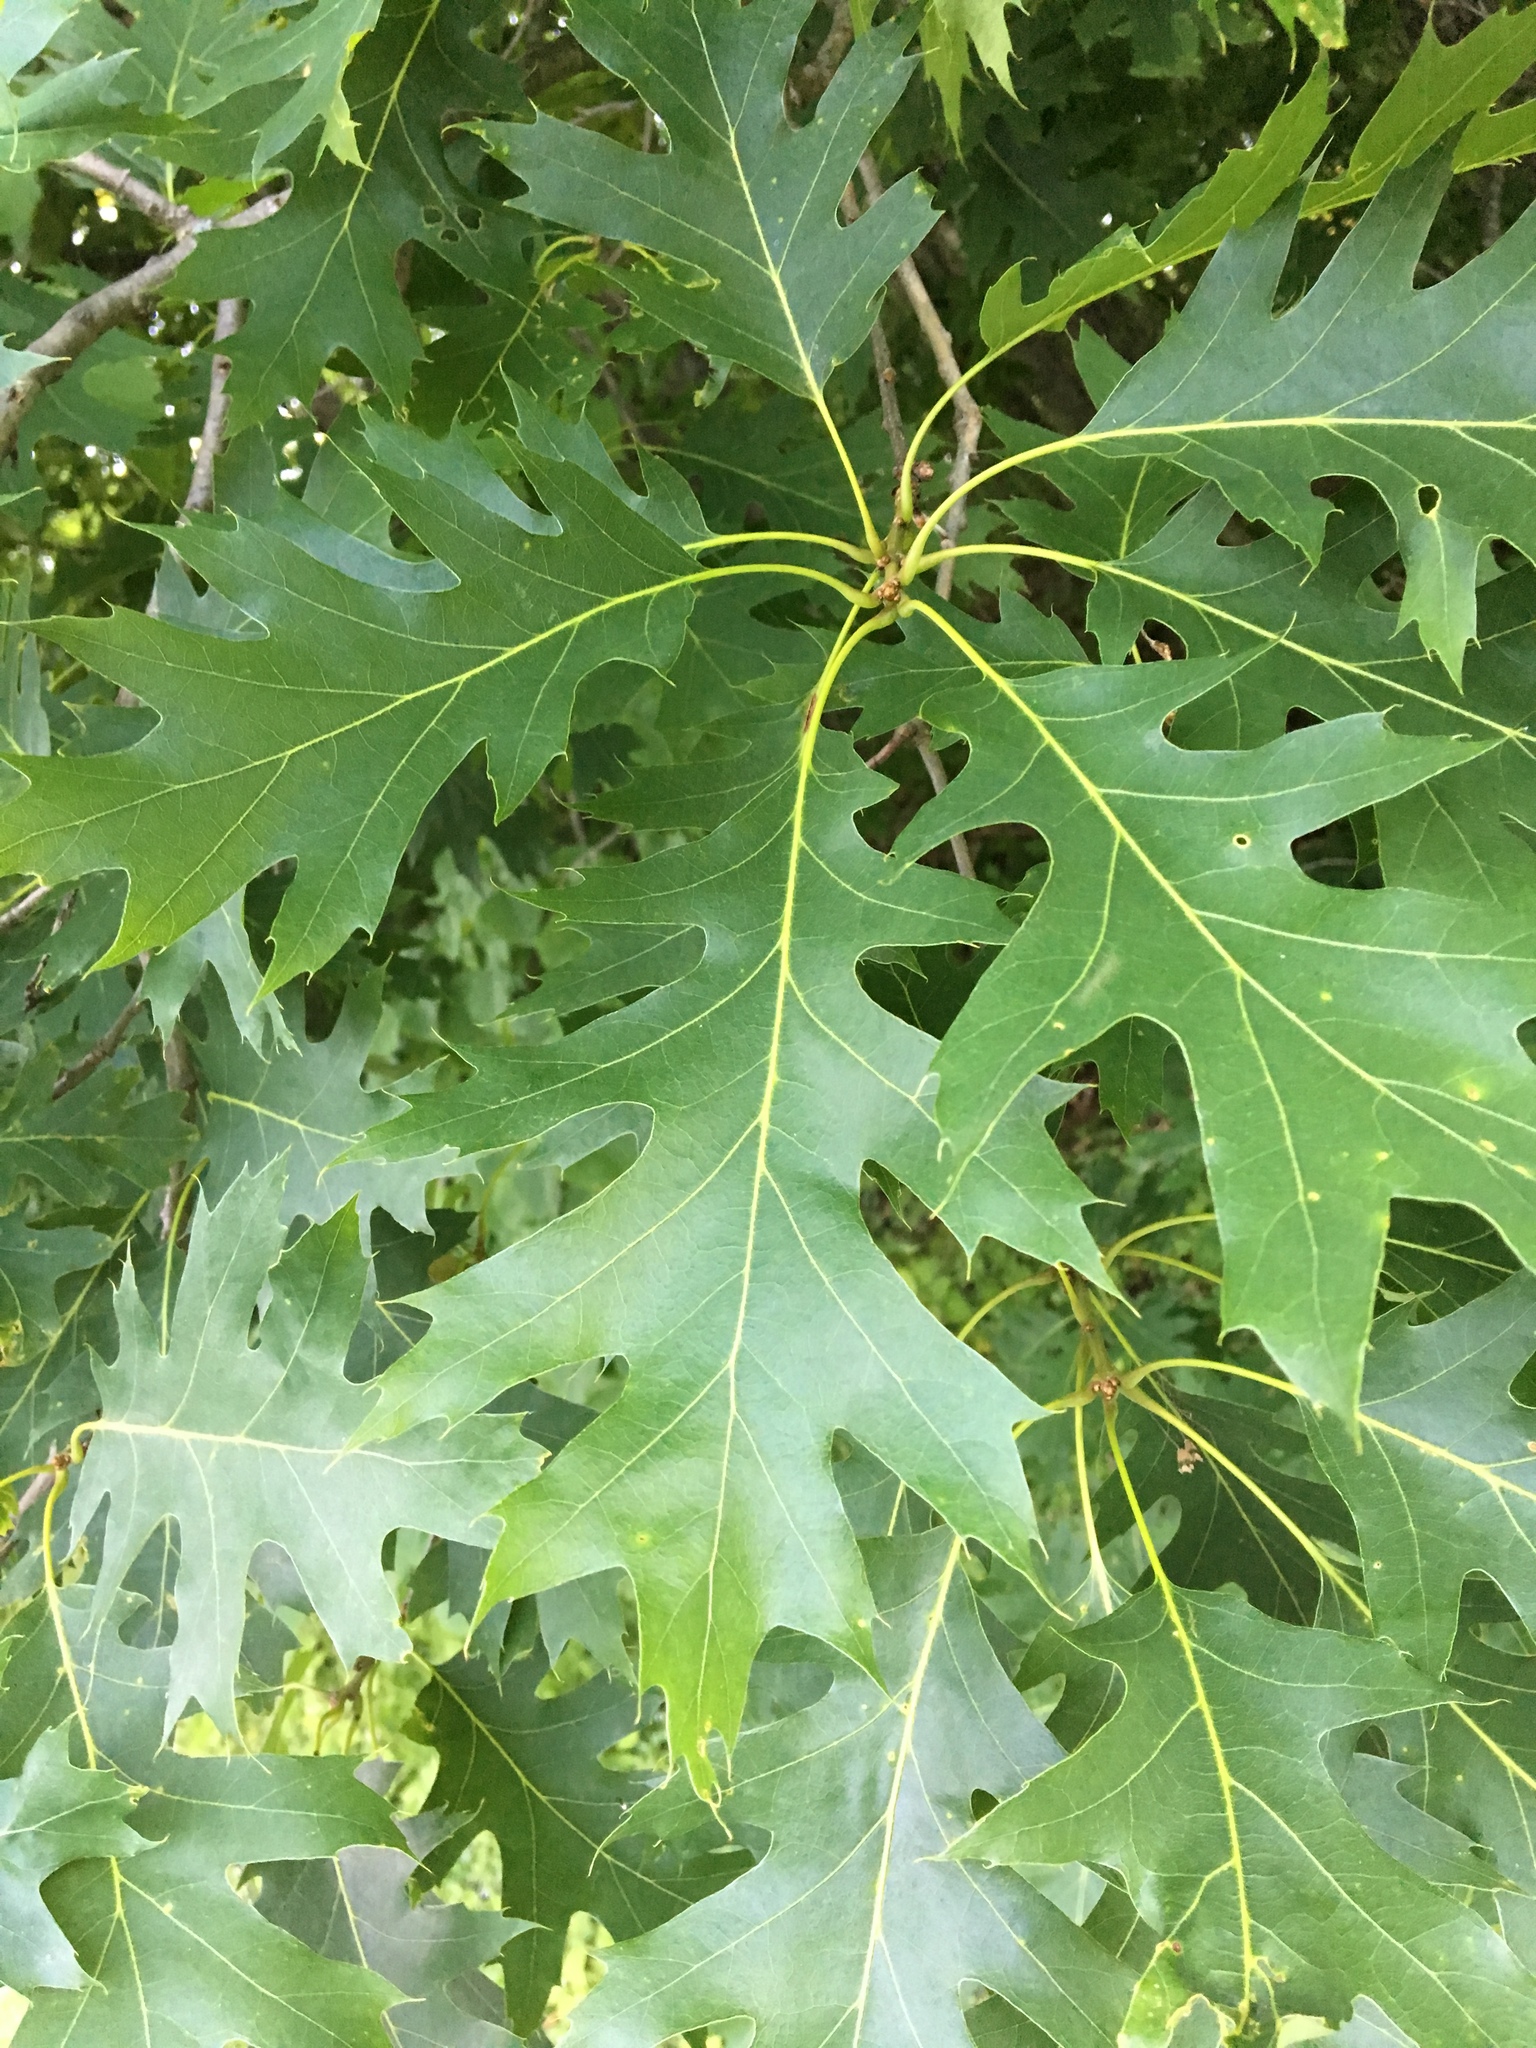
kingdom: Plantae
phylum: Tracheophyta
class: Magnoliopsida
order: Fagales
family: Fagaceae
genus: Quercus
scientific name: Quercus rubra
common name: Red oak
